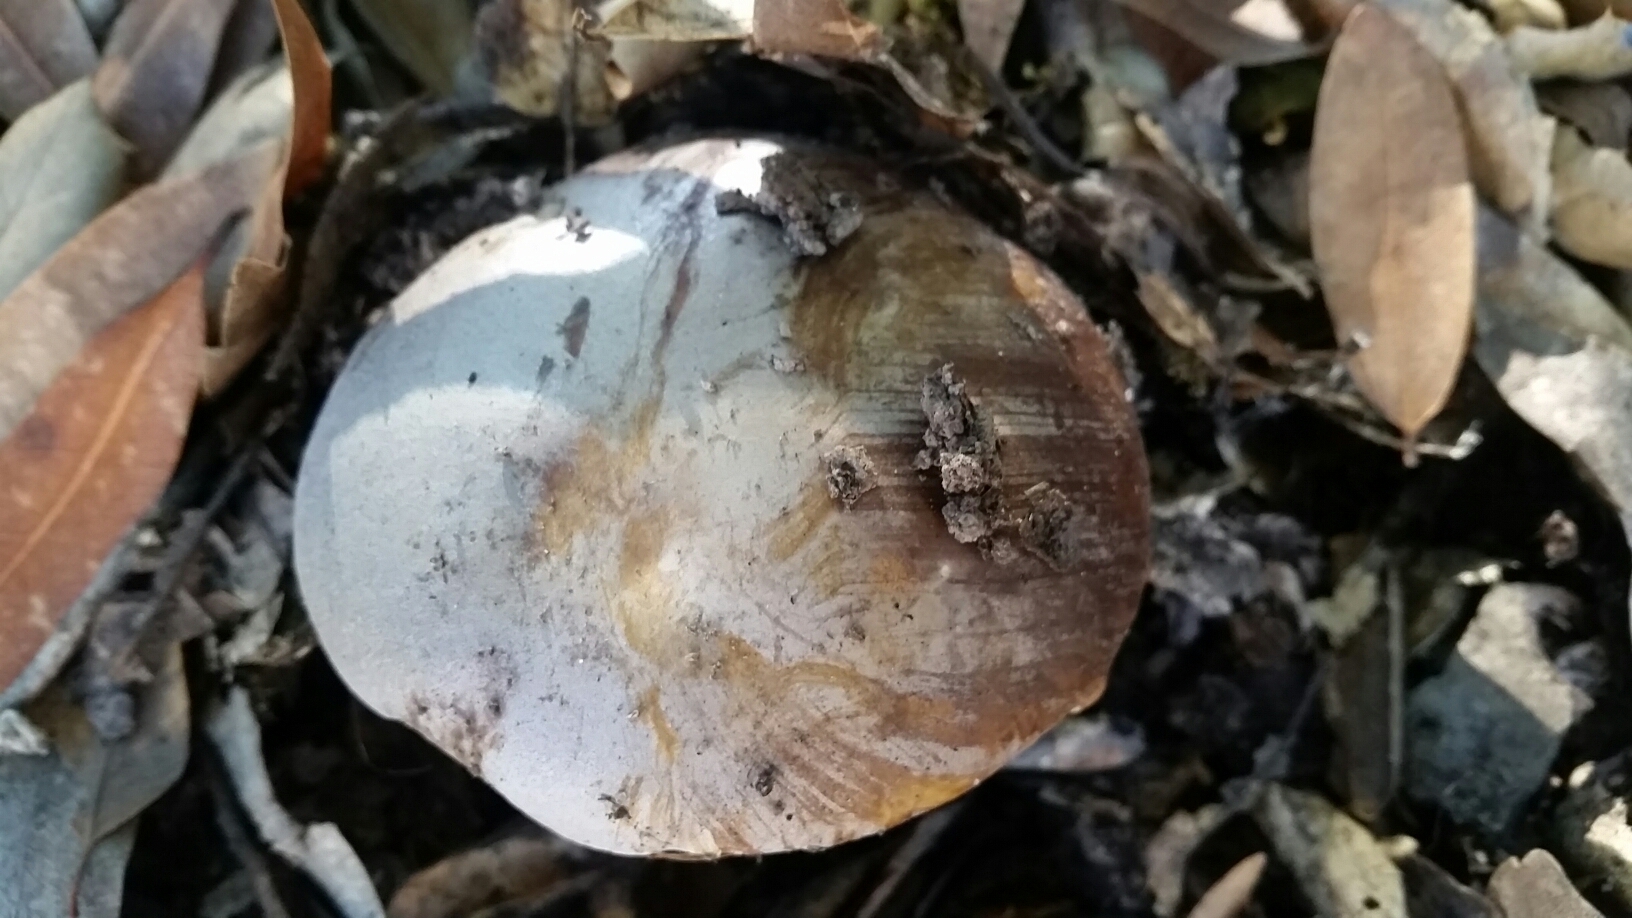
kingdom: Fungi
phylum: Basidiomycota
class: Agaricomycetes
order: Boletales
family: Boletaceae
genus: Boletus
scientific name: Boletus regineus
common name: Queen bolete
